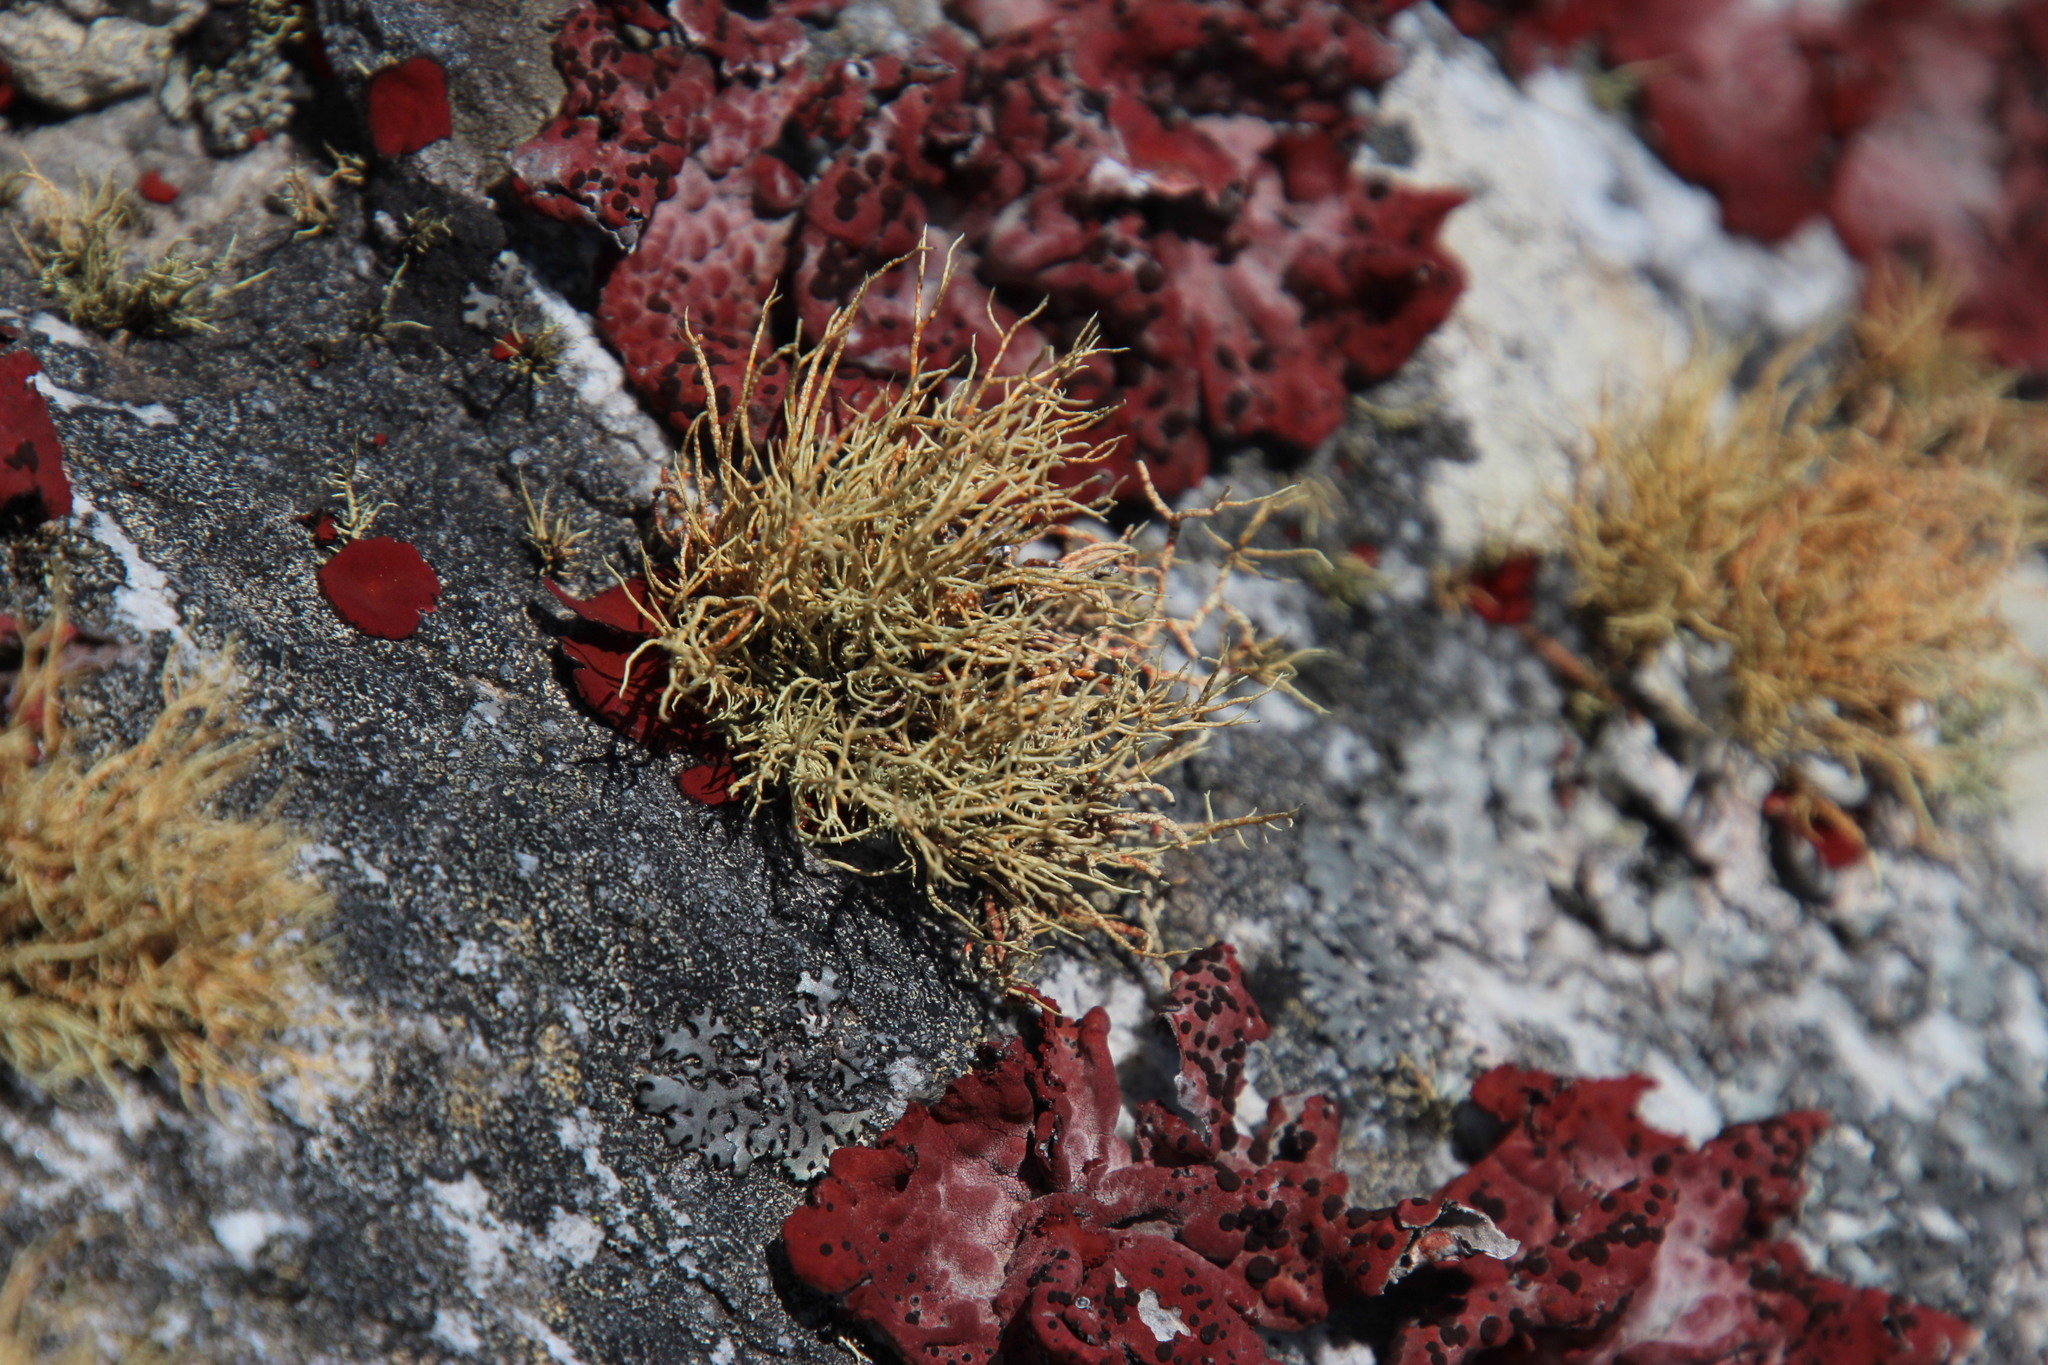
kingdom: Fungi
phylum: Ascomycota
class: Lecanoromycetes
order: Lecanorales
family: Parmeliaceae
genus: Usnea
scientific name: Usnea maculata
